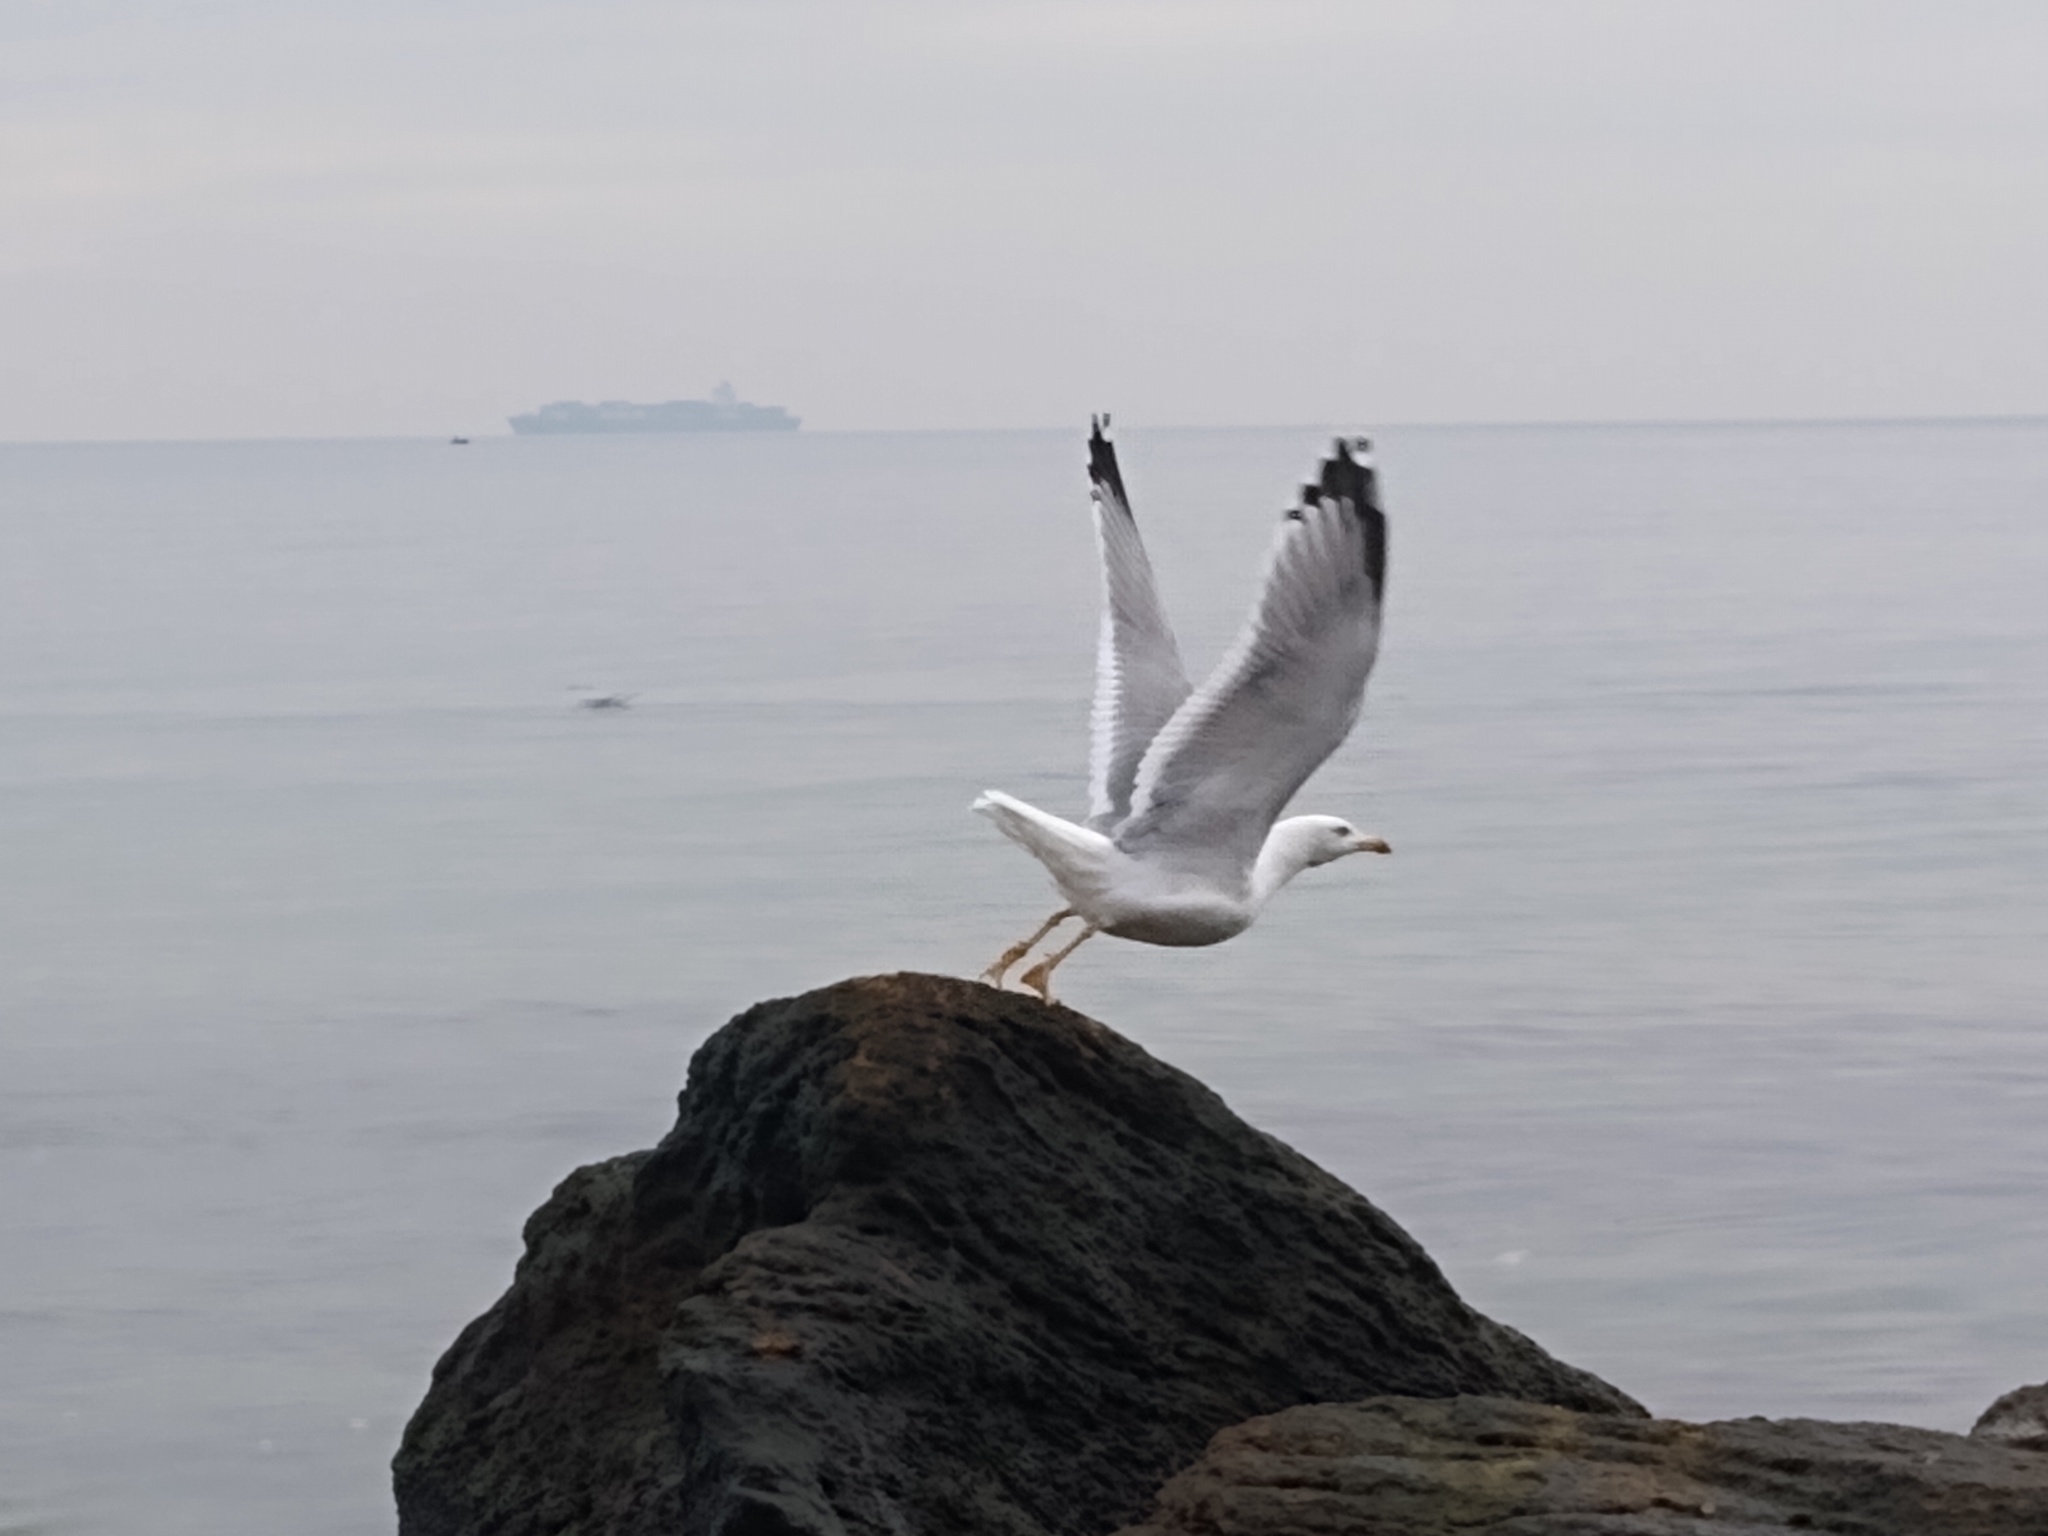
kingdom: Animalia
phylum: Chordata
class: Aves
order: Charadriiformes
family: Laridae
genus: Larus
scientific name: Larus michahellis
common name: Yellow-legged gull
